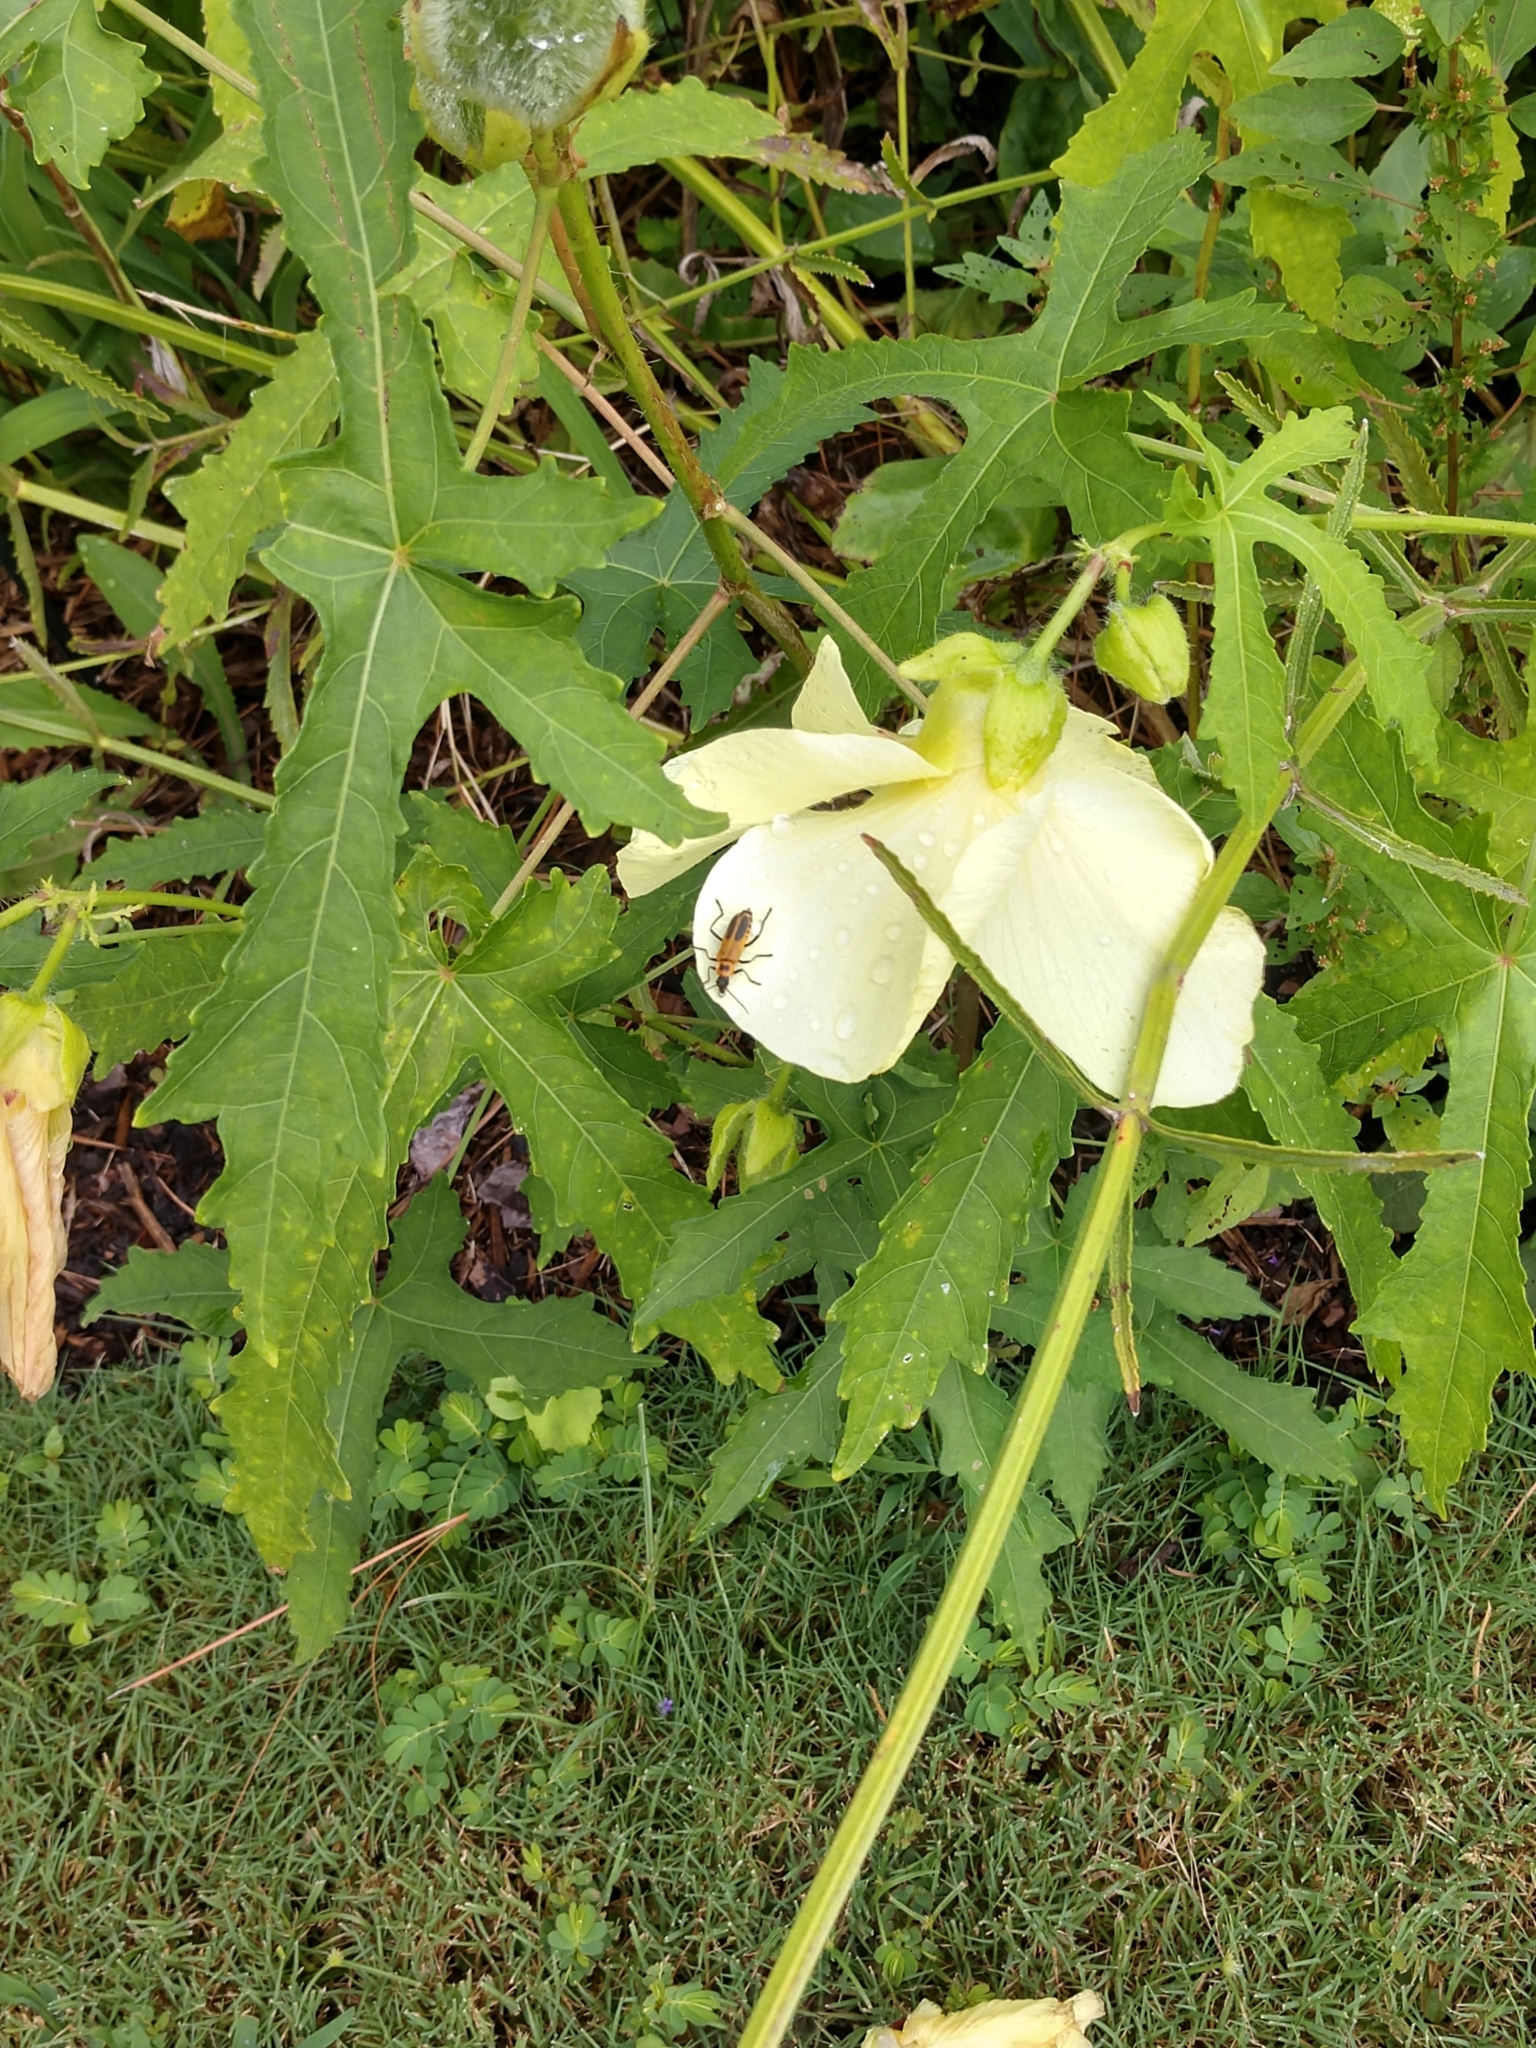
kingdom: Animalia
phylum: Arthropoda
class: Insecta
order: Coleoptera
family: Cantharidae
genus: Chauliognathus
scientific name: Chauliognathus pensylvanicus
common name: Goldenrod soldier beetle
